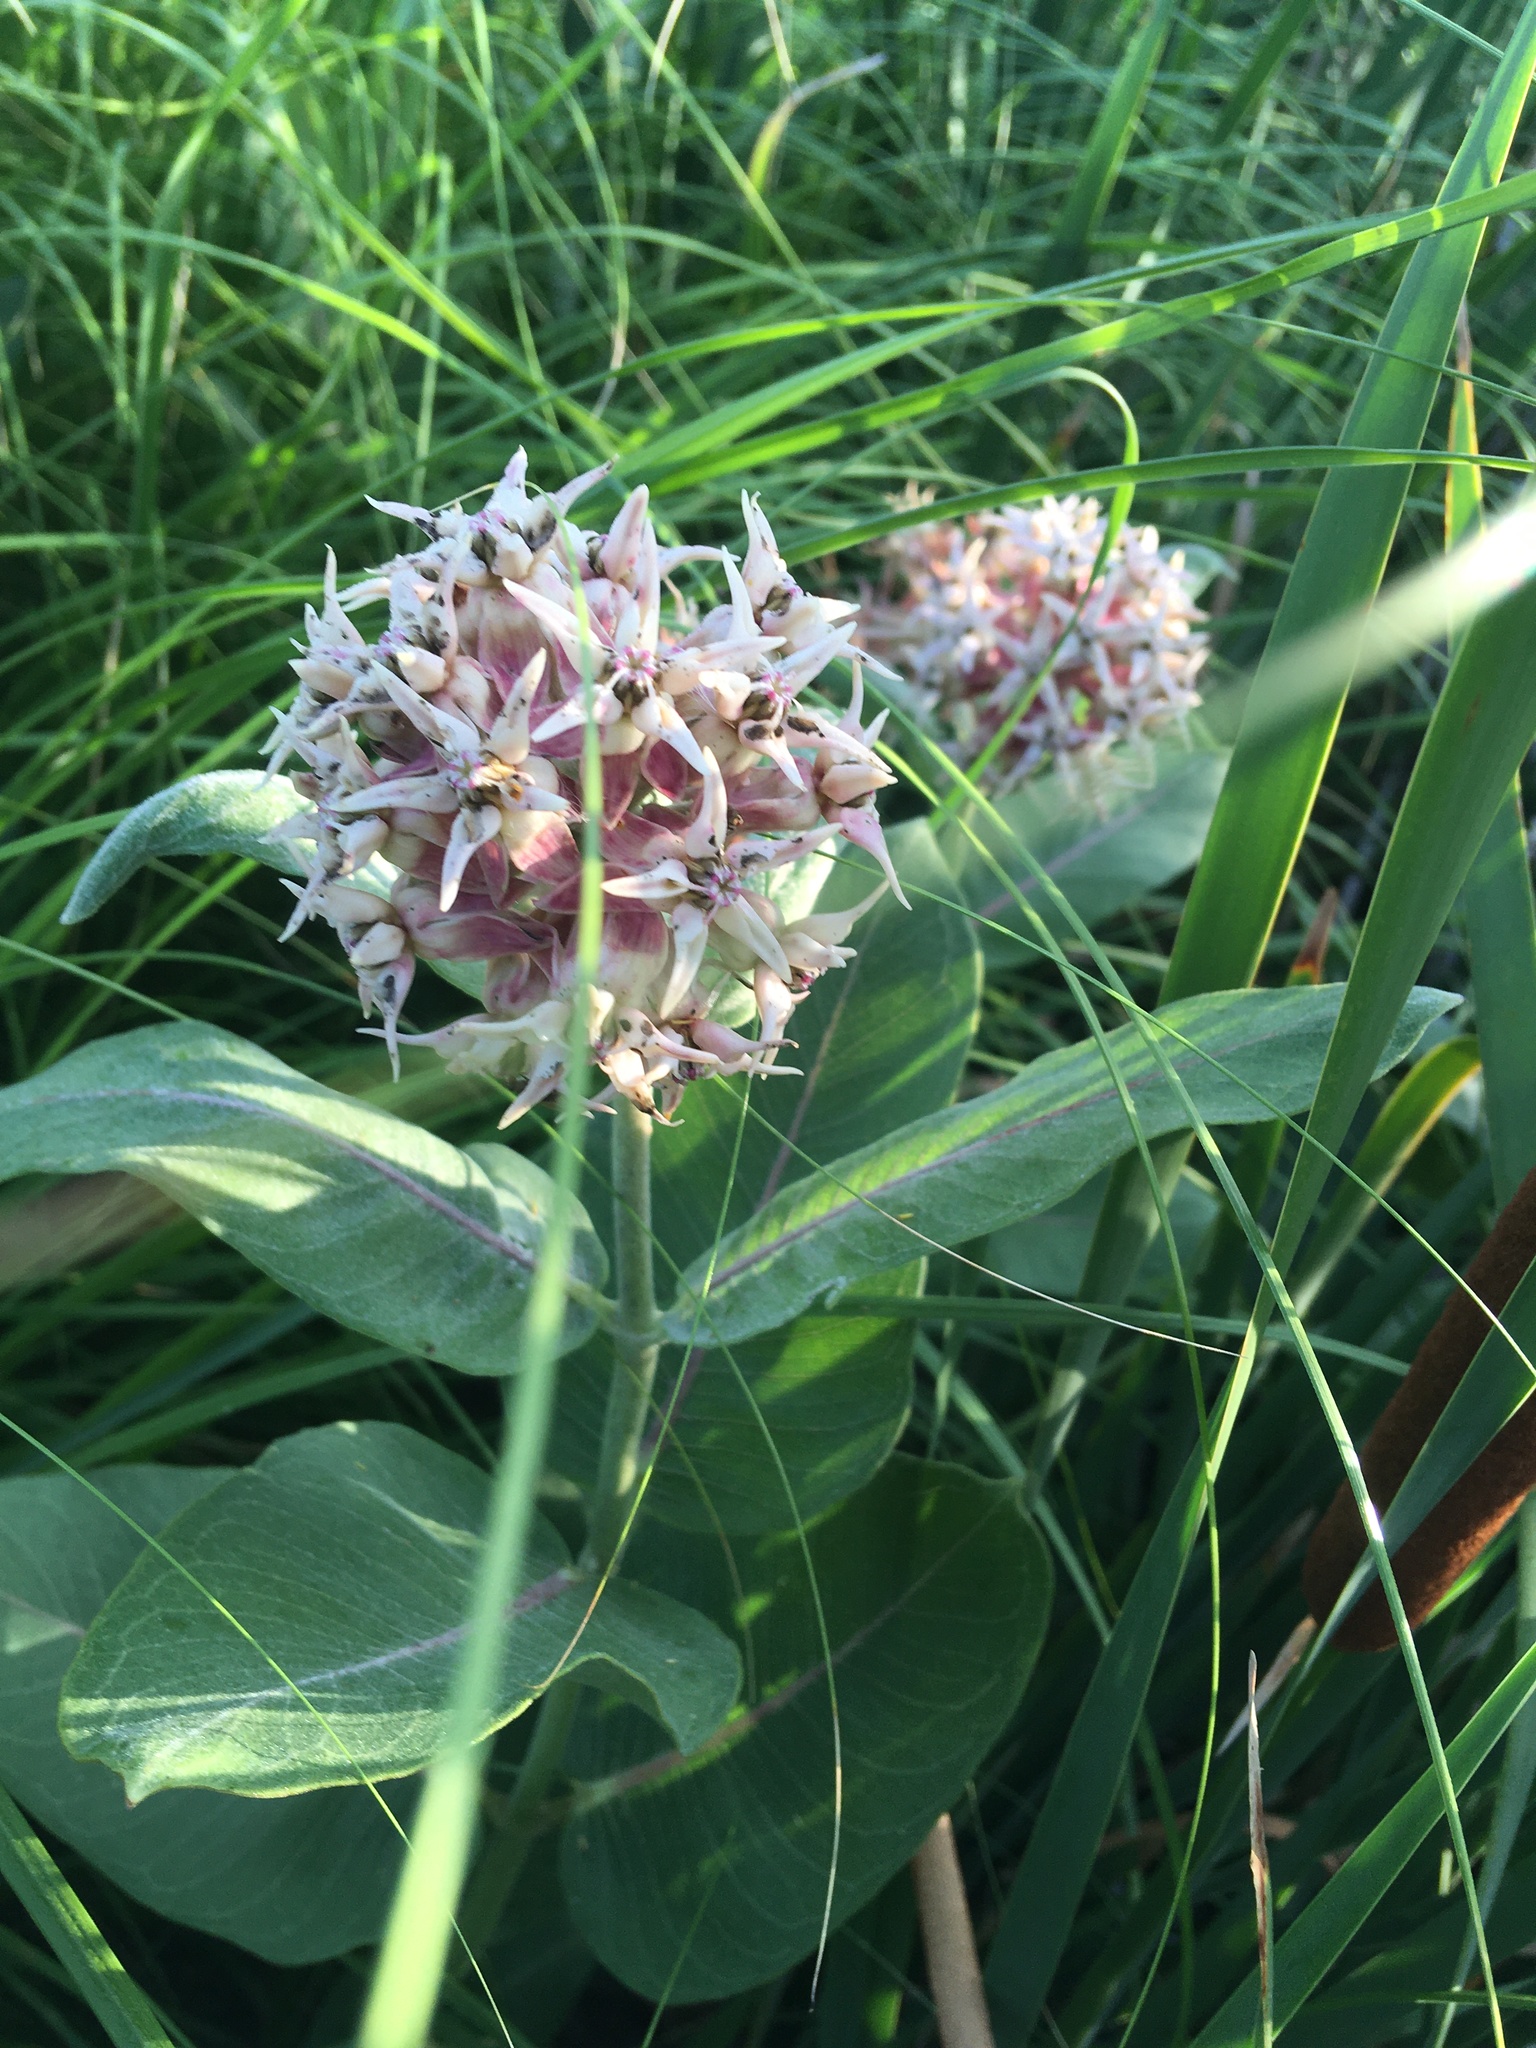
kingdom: Plantae
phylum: Tracheophyta
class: Magnoliopsida
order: Gentianales
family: Apocynaceae
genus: Asclepias
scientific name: Asclepias speciosa
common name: Showy milkweed
